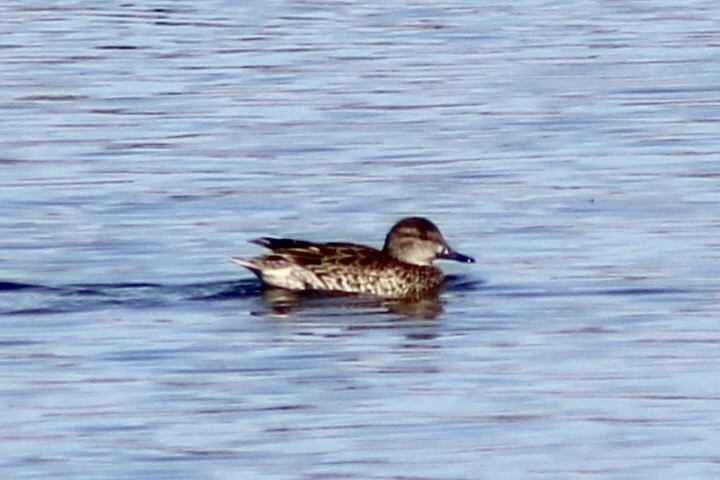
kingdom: Animalia
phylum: Chordata
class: Aves
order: Anseriformes
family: Anatidae
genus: Anas
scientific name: Anas crecca
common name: Eurasian teal
